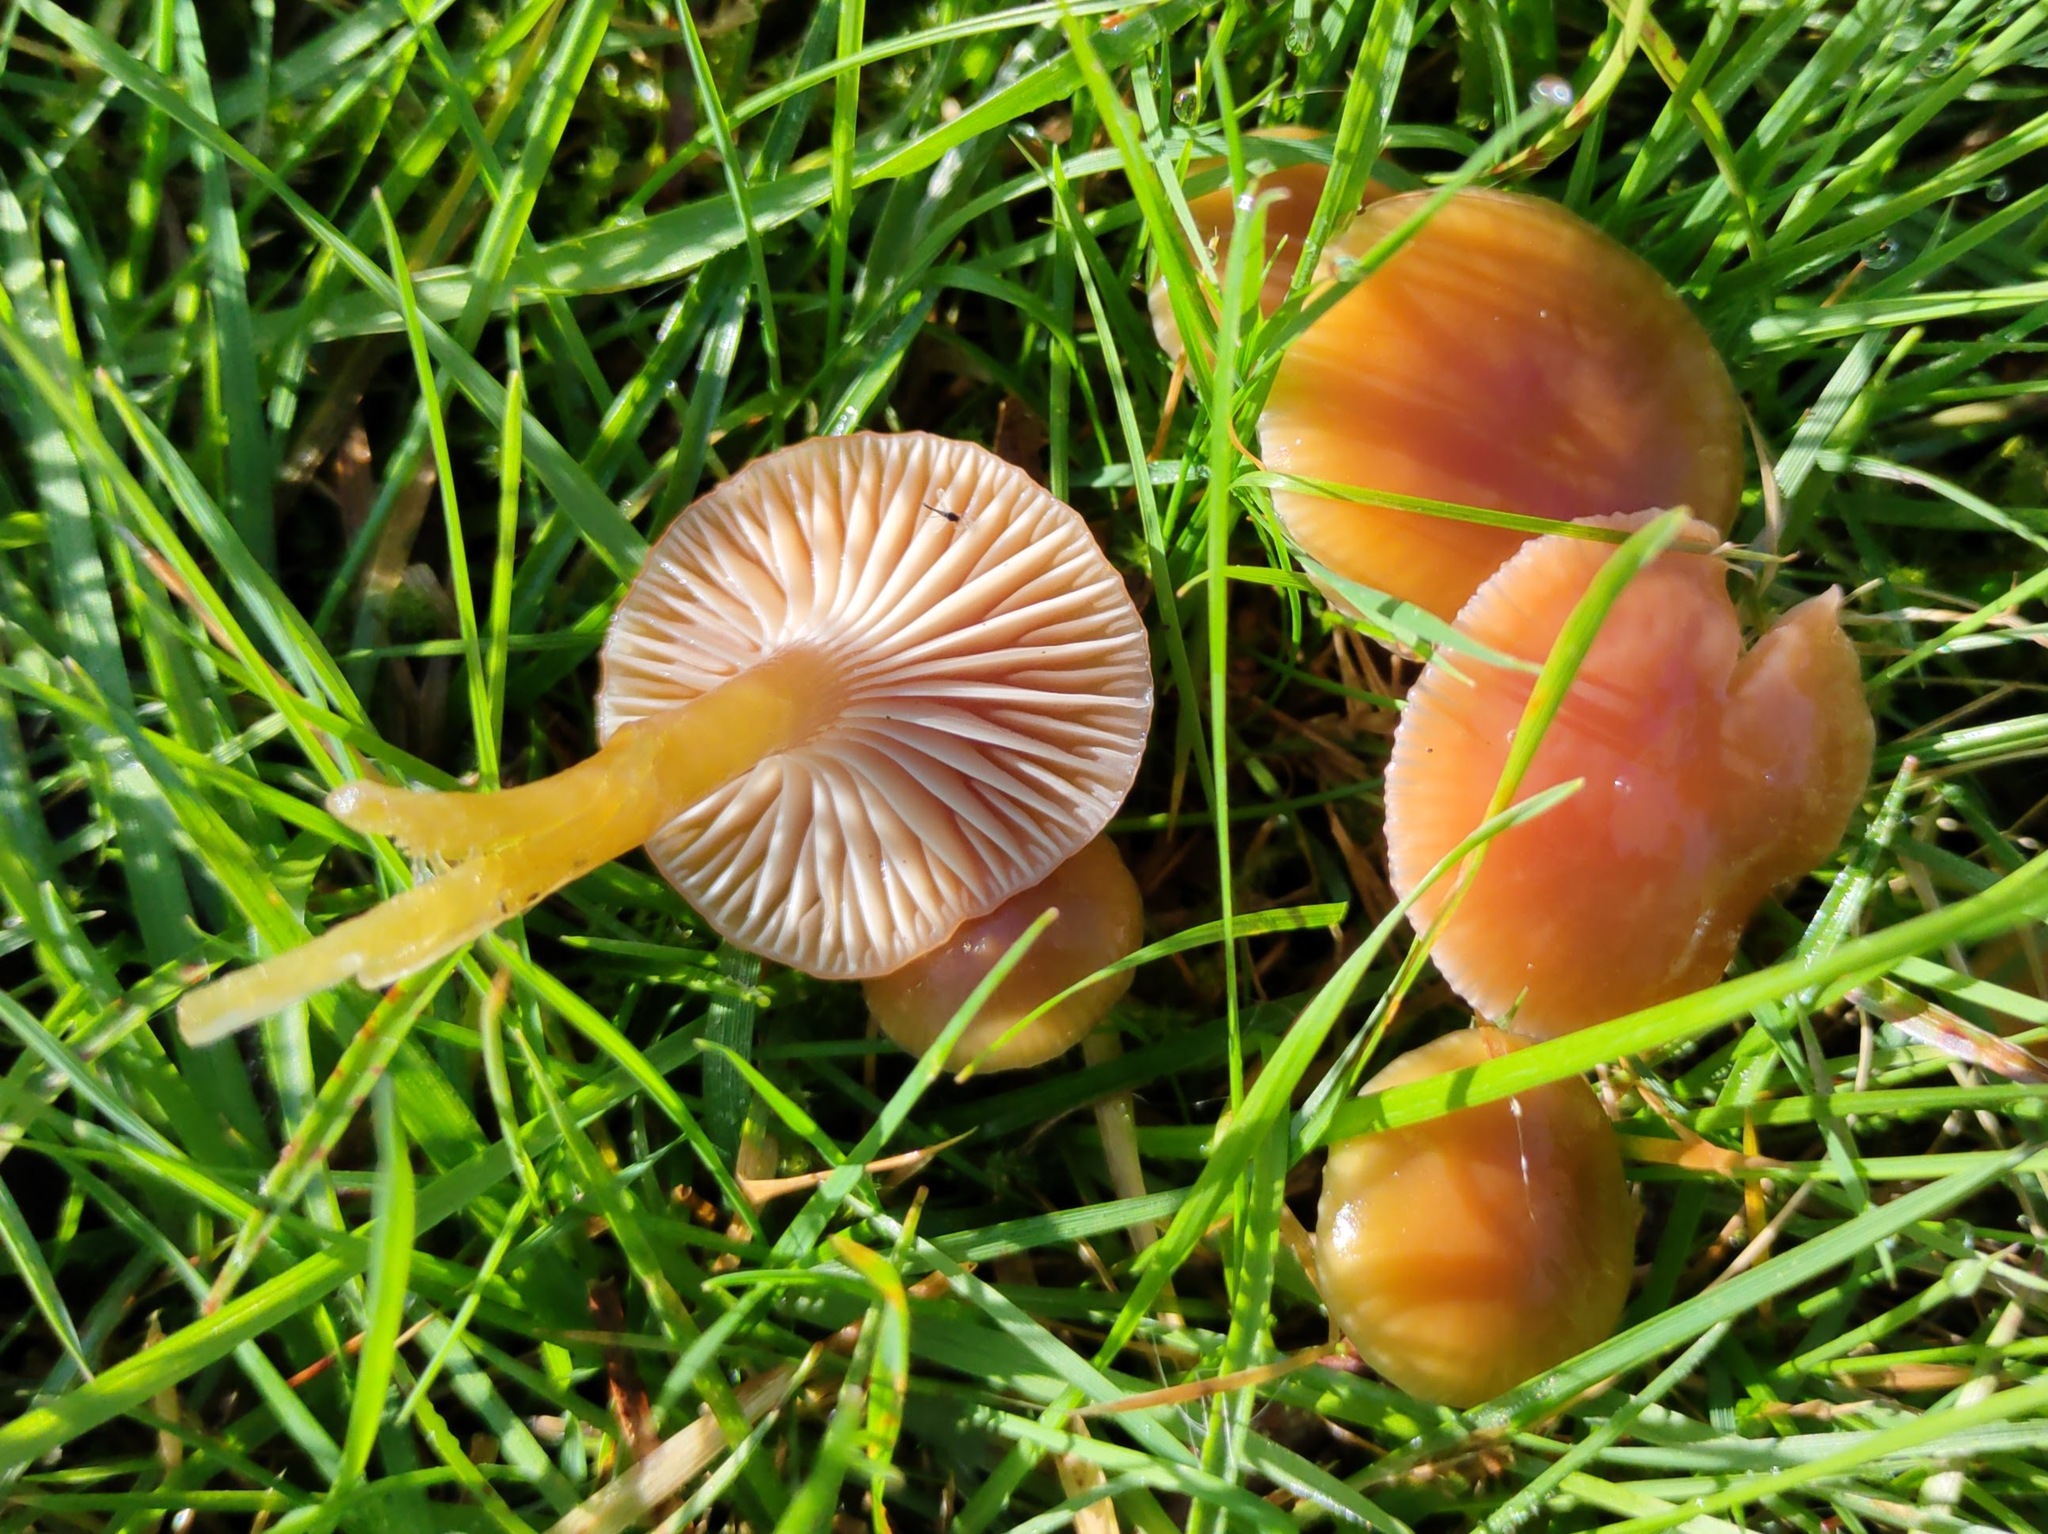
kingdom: Fungi
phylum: Basidiomycota
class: Agaricomycetes
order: Agaricales
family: Hygrophoraceae
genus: Gliophorus
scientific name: Gliophorus laetus
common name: Heath waxcap
